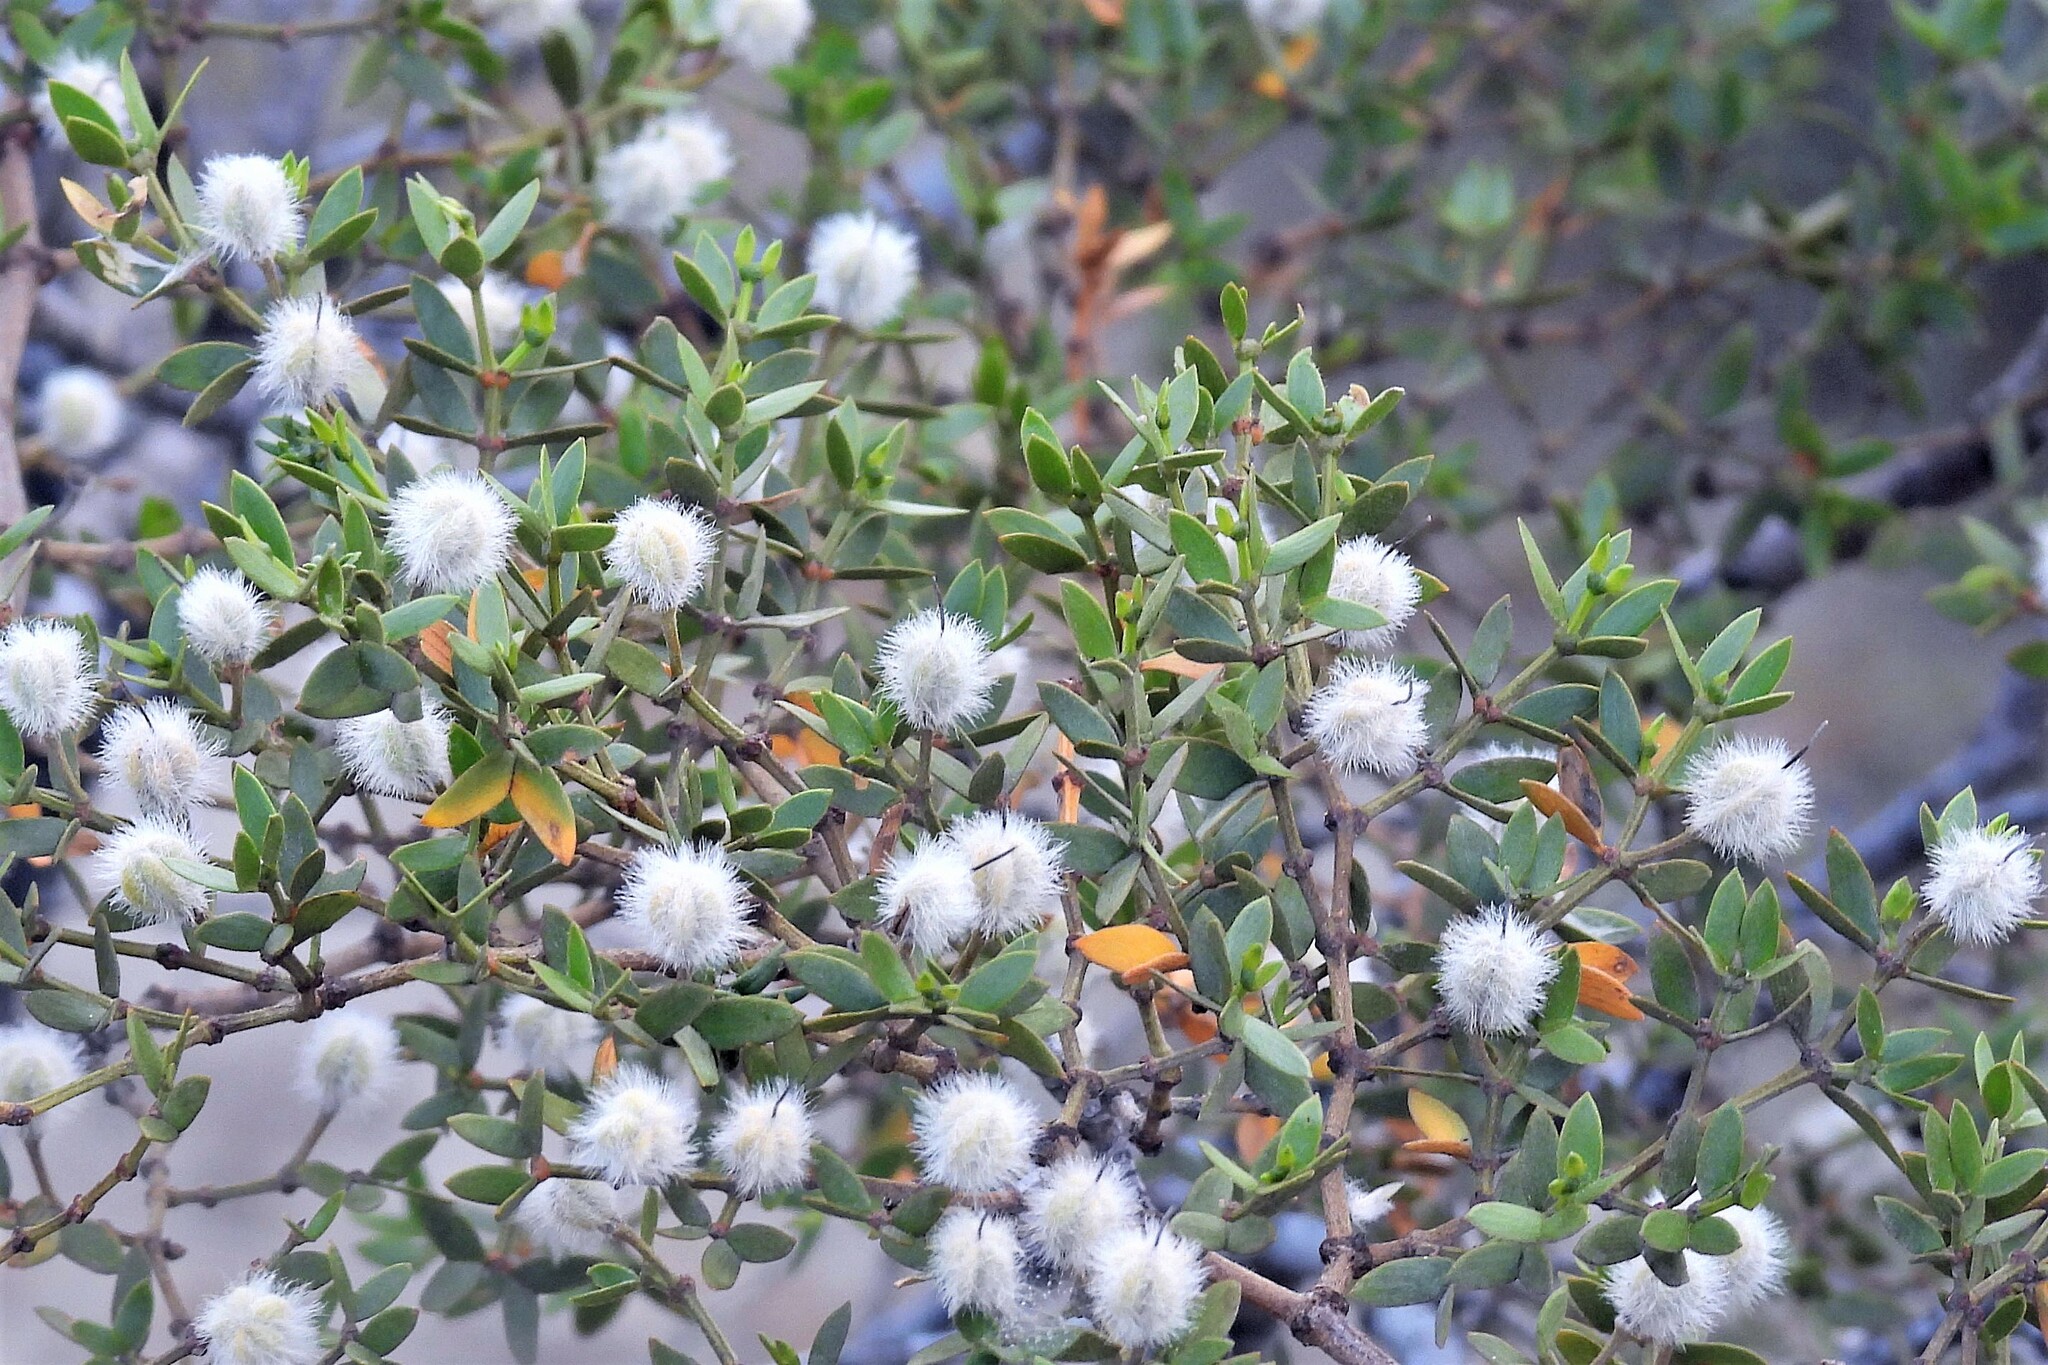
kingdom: Plantae
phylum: Tracheophyta
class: Magnoliopsida
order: Zygophyllales
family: Zygophyllaceae
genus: Larrea
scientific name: Larrea divaricata
